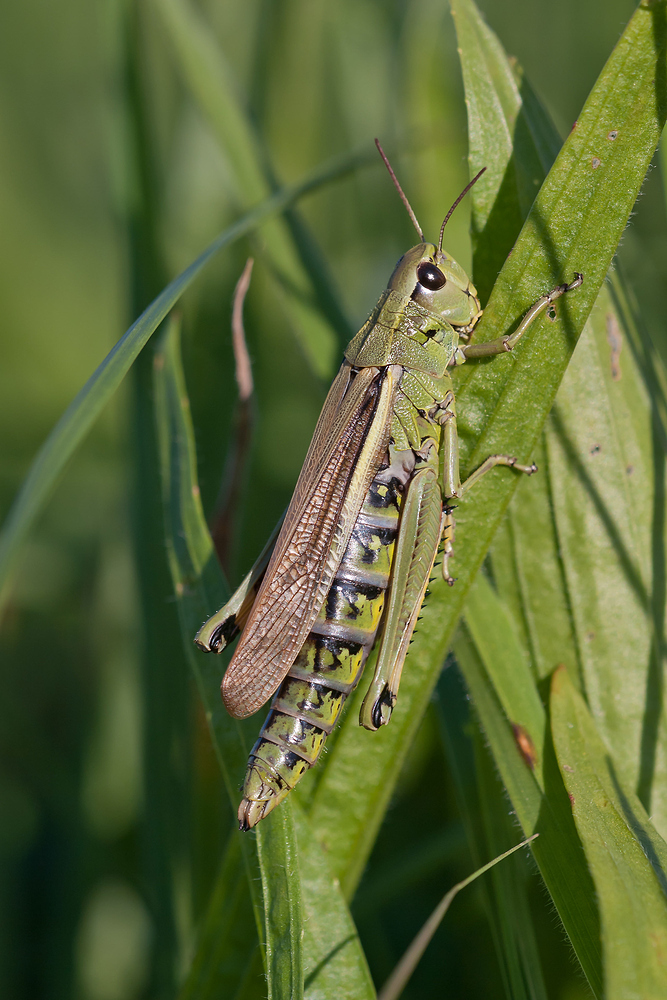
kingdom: Animalia
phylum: Arthropoda
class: Insecta
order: Orthoptera
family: Acrididae
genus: Stethophyma
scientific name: Stethophyma grossum
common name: Large marsh grasshopper
